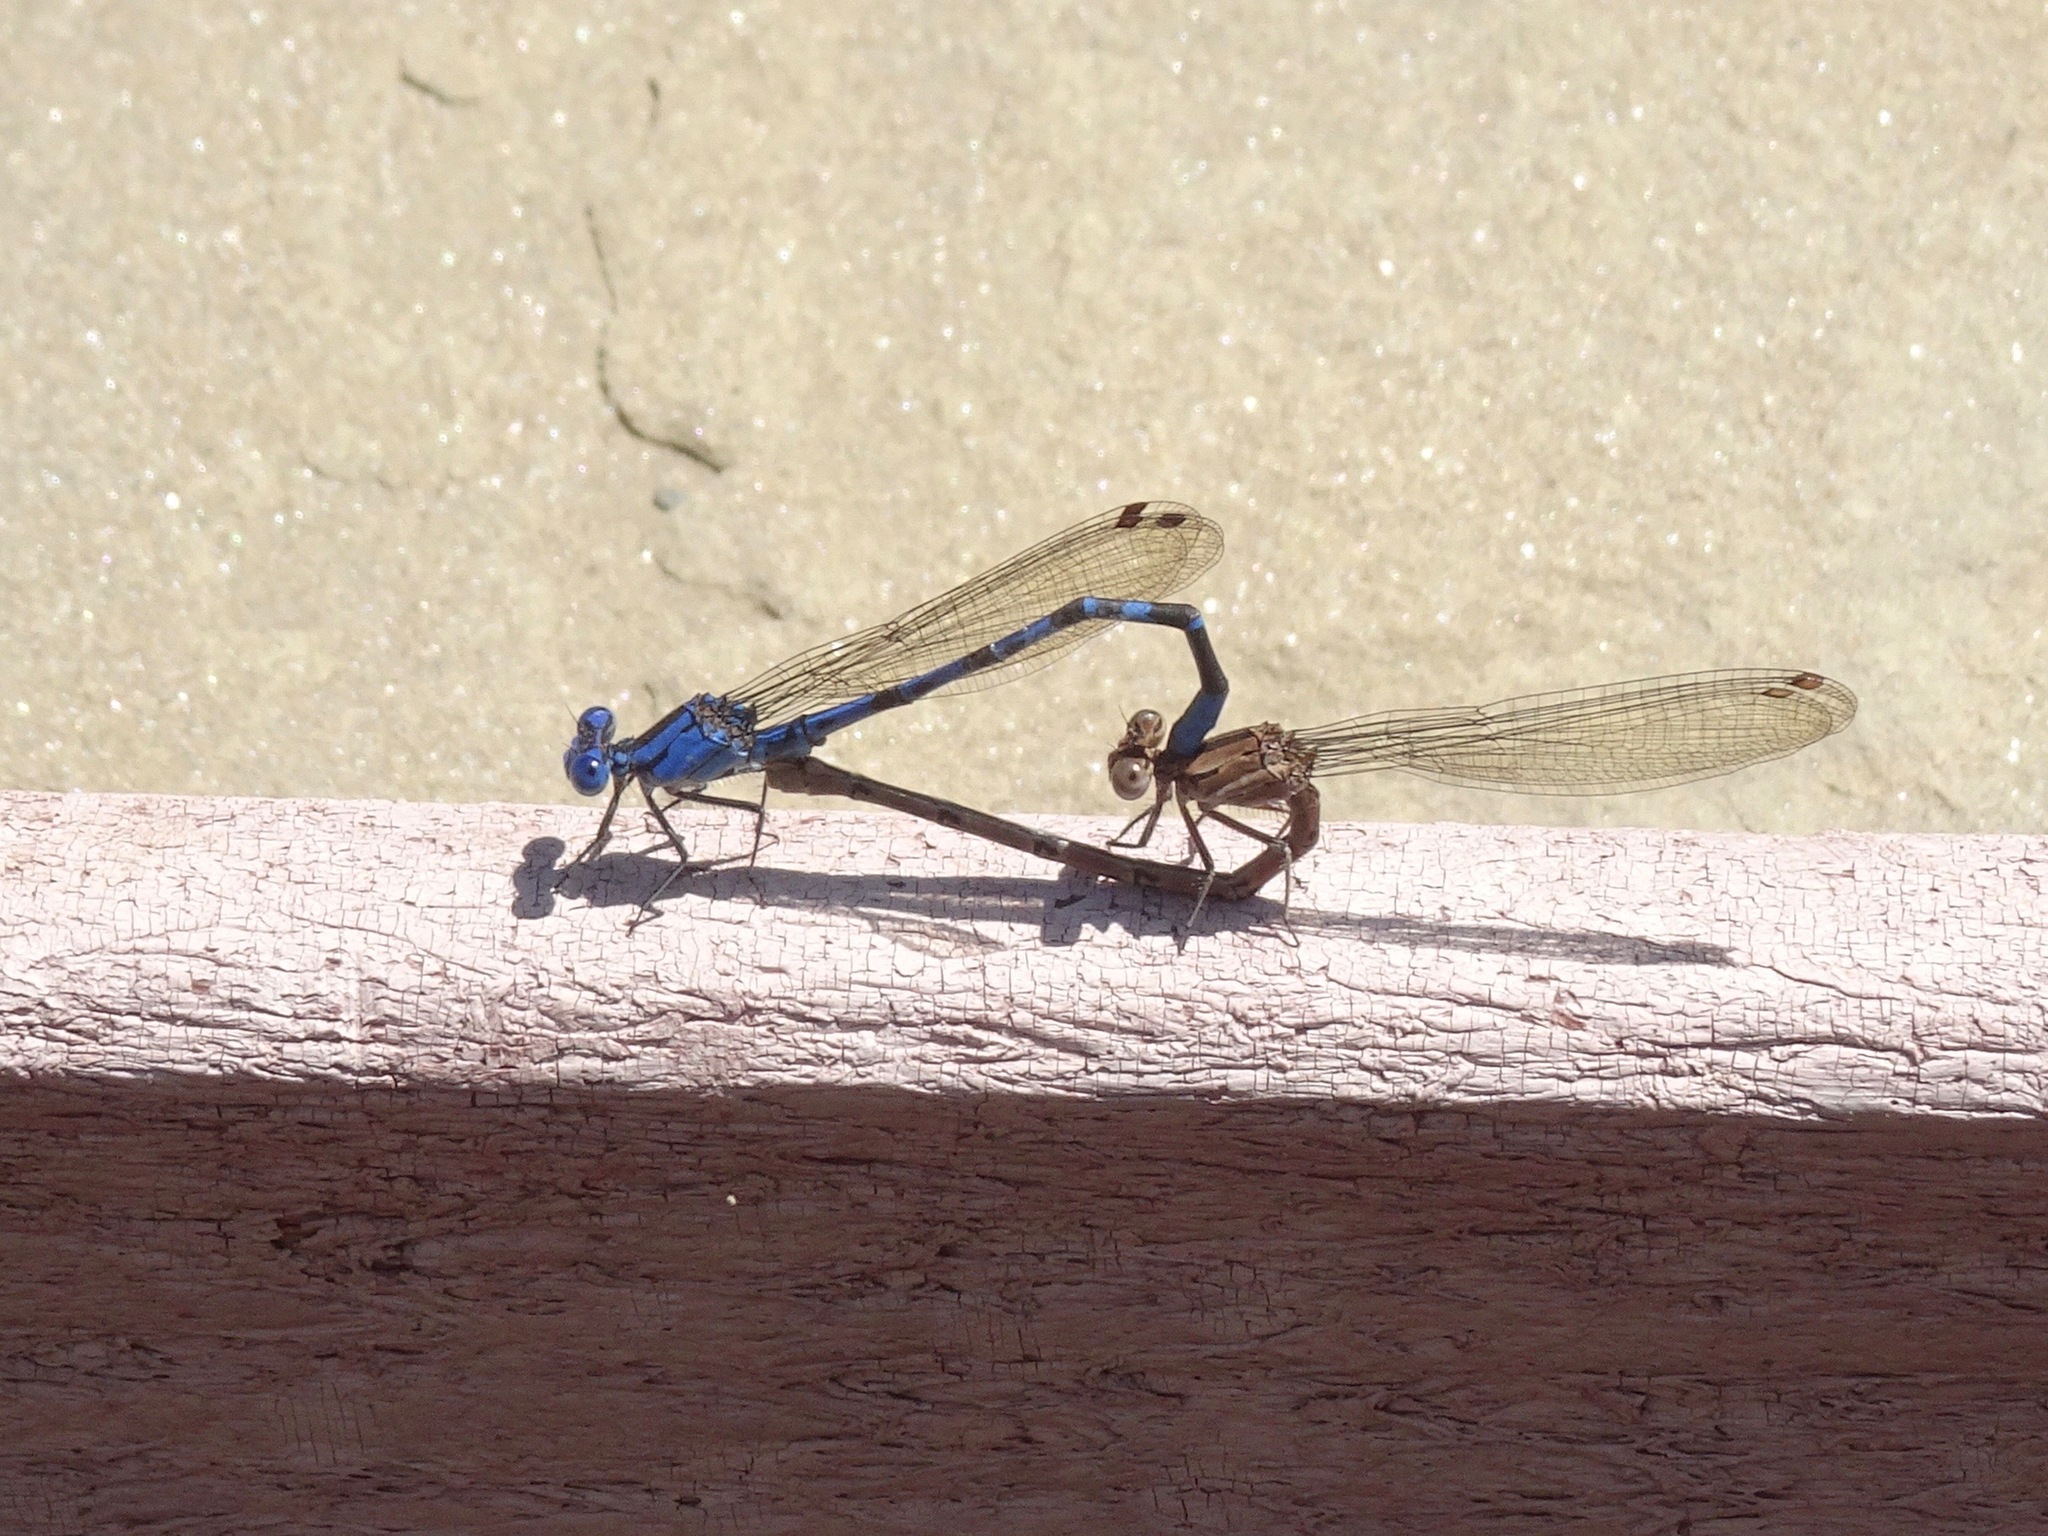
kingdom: Animalia
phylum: Arthropoda
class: Insecta
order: Odonata
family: Coenagrionidae
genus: Argia
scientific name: Argia vivida
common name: Vivid dancer
